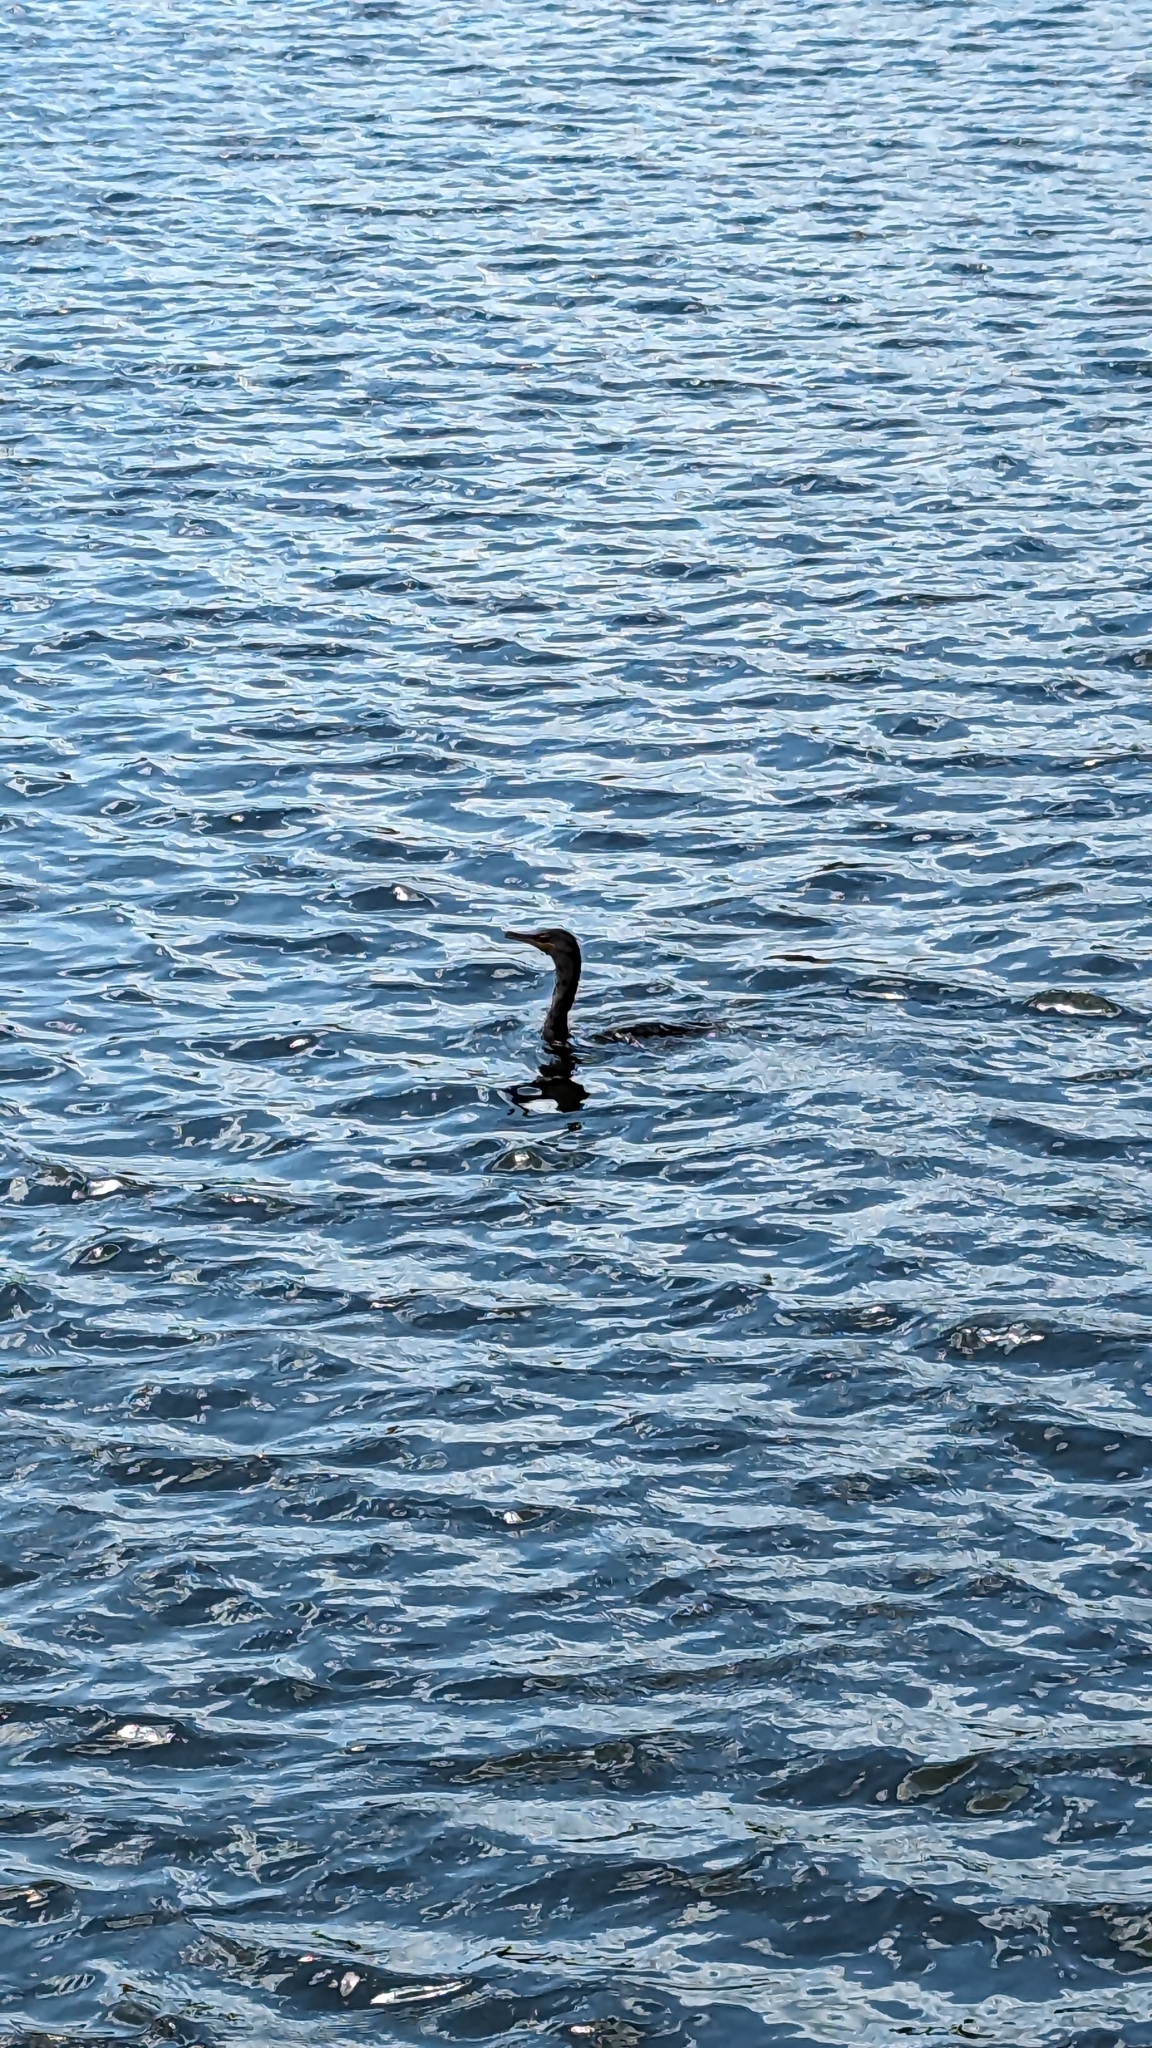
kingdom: Animalia
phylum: Chordata
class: Aves
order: Suliformes
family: Phalacrocoracidae
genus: Phalacrocorax
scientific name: Phalacrocorax auritus
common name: Double-crested cormorant
